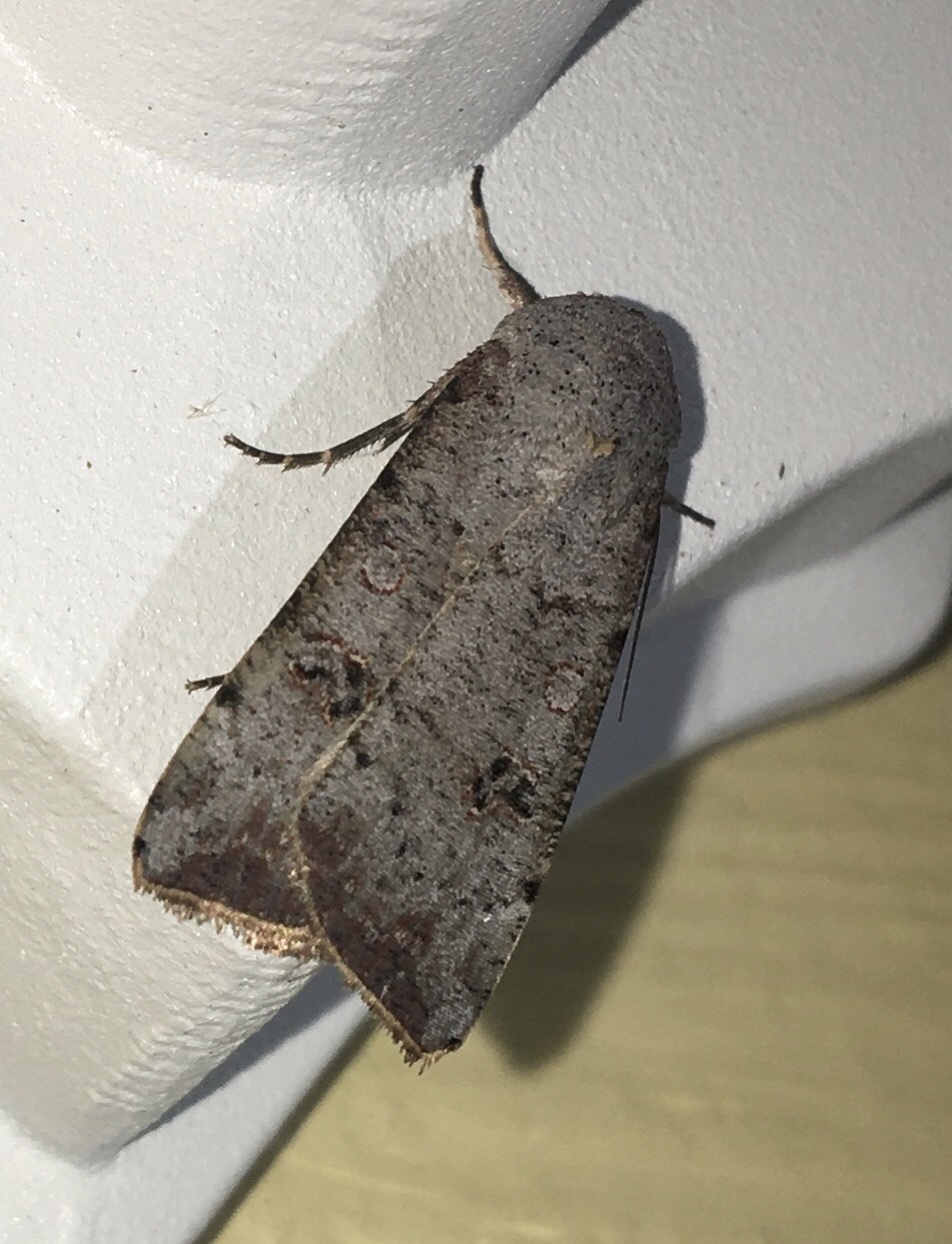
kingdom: Animalia
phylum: Arthropoda
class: Insecta
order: Lepidoptera
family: Noctuidae
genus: Anicla
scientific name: Anicla infecta
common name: Green cutworm
